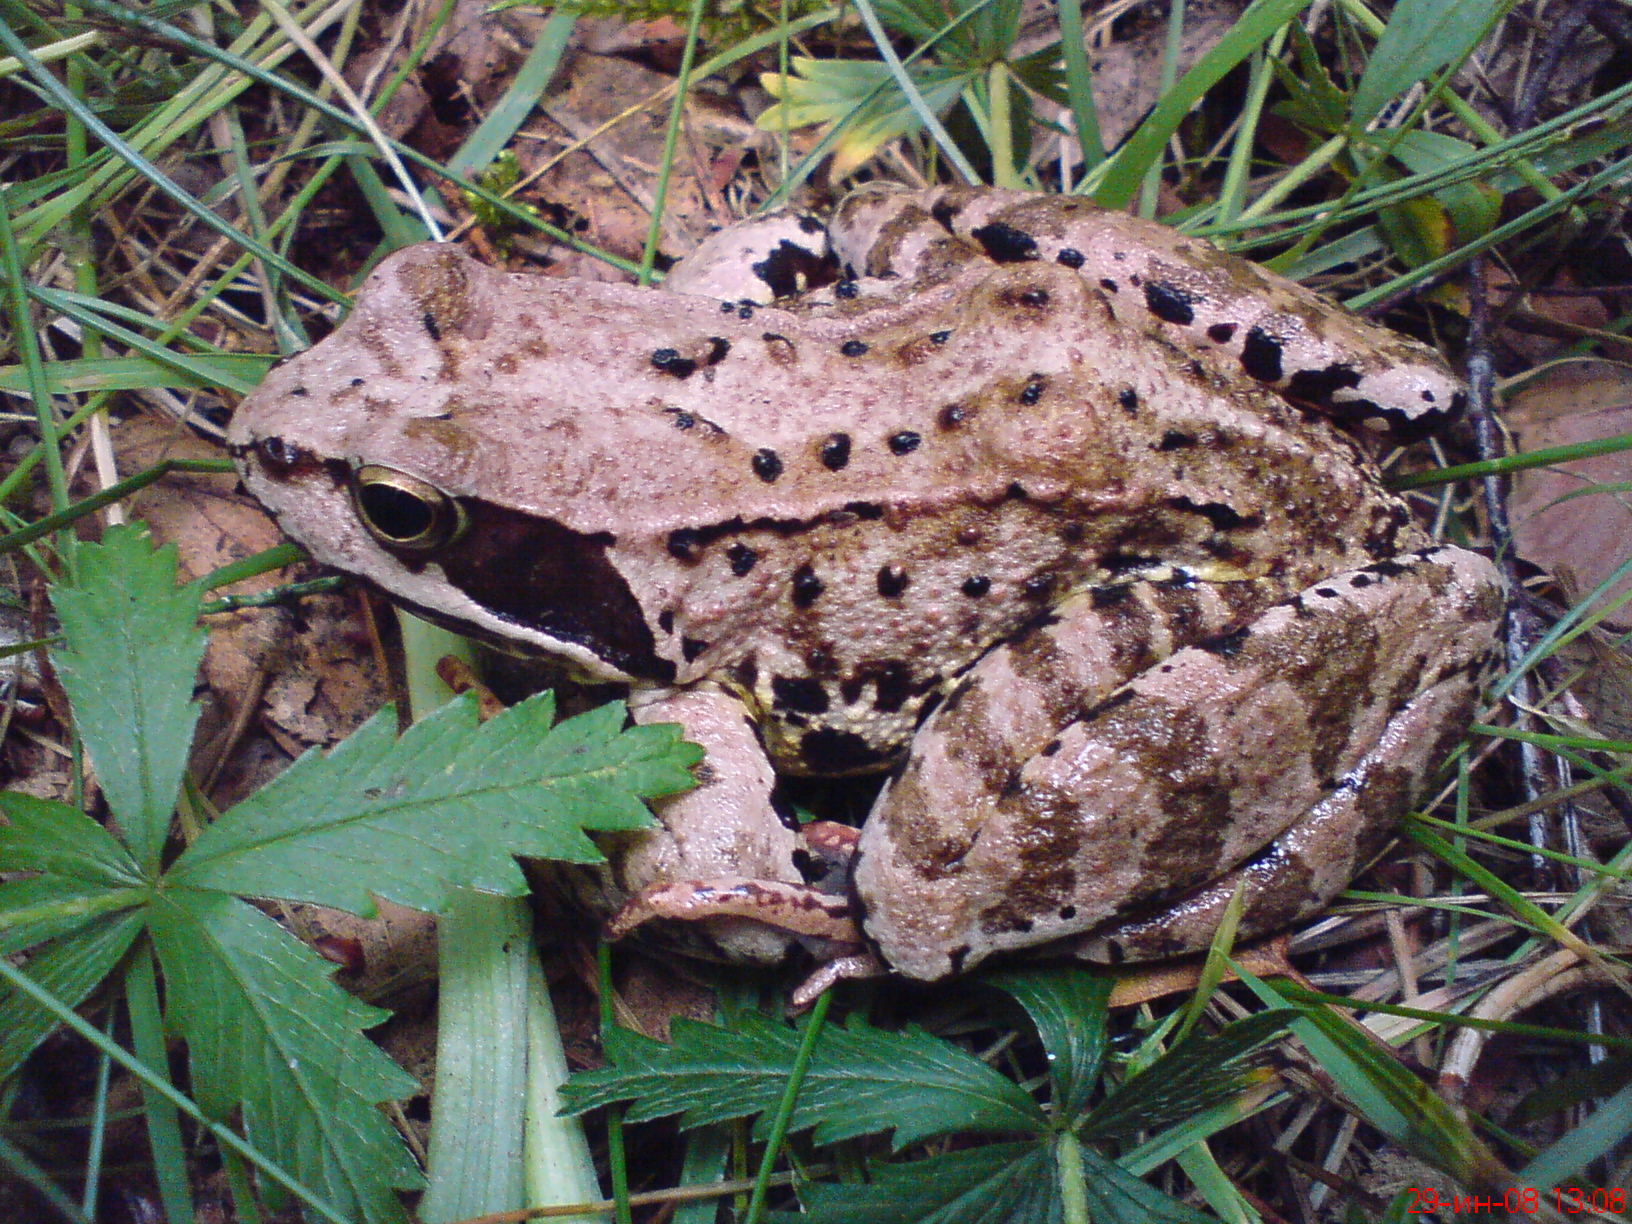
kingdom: Animalia
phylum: Chordata
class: Amphibia
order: Anura
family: Ranidae
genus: Rana
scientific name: Rana temporaria
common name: Common frog
